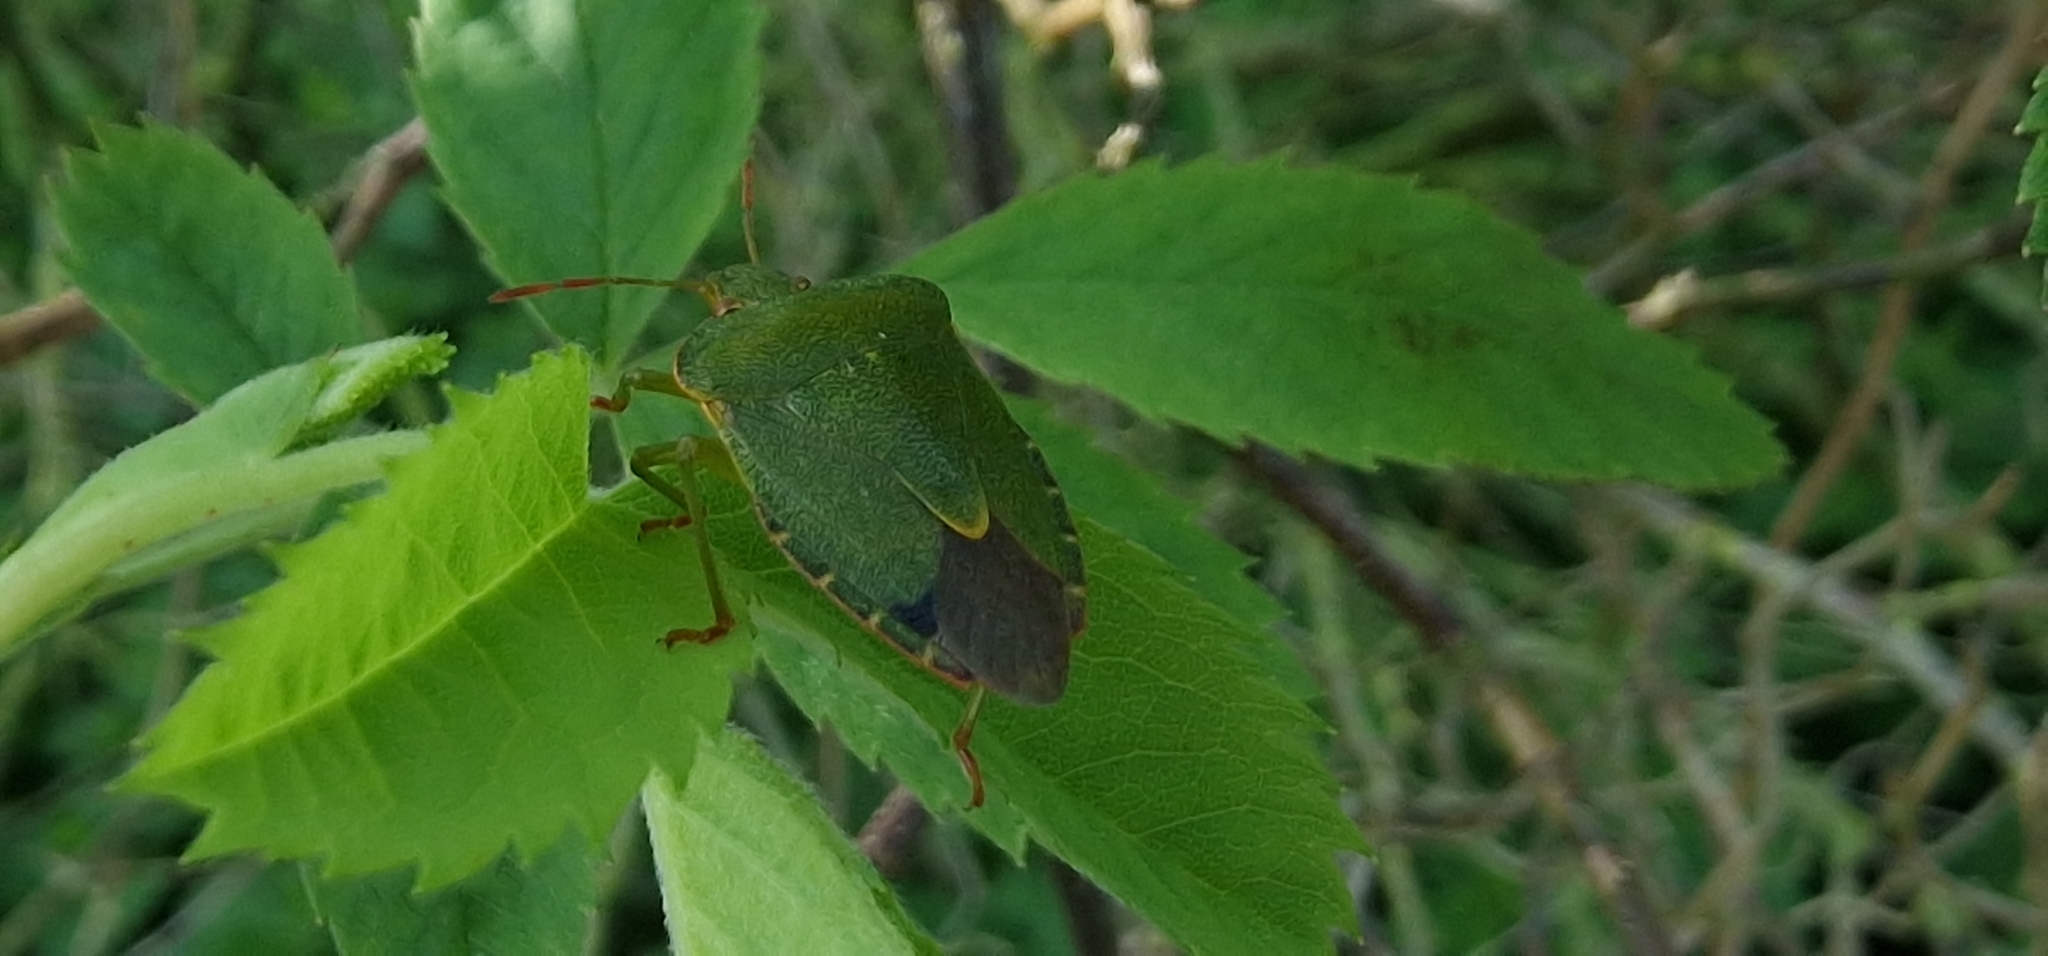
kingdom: Animalia
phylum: Arthropoda
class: Insecta
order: Hemiptera
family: Pentatomidae
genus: Palomena
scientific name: Palomena prasina
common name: Green shieldbug
